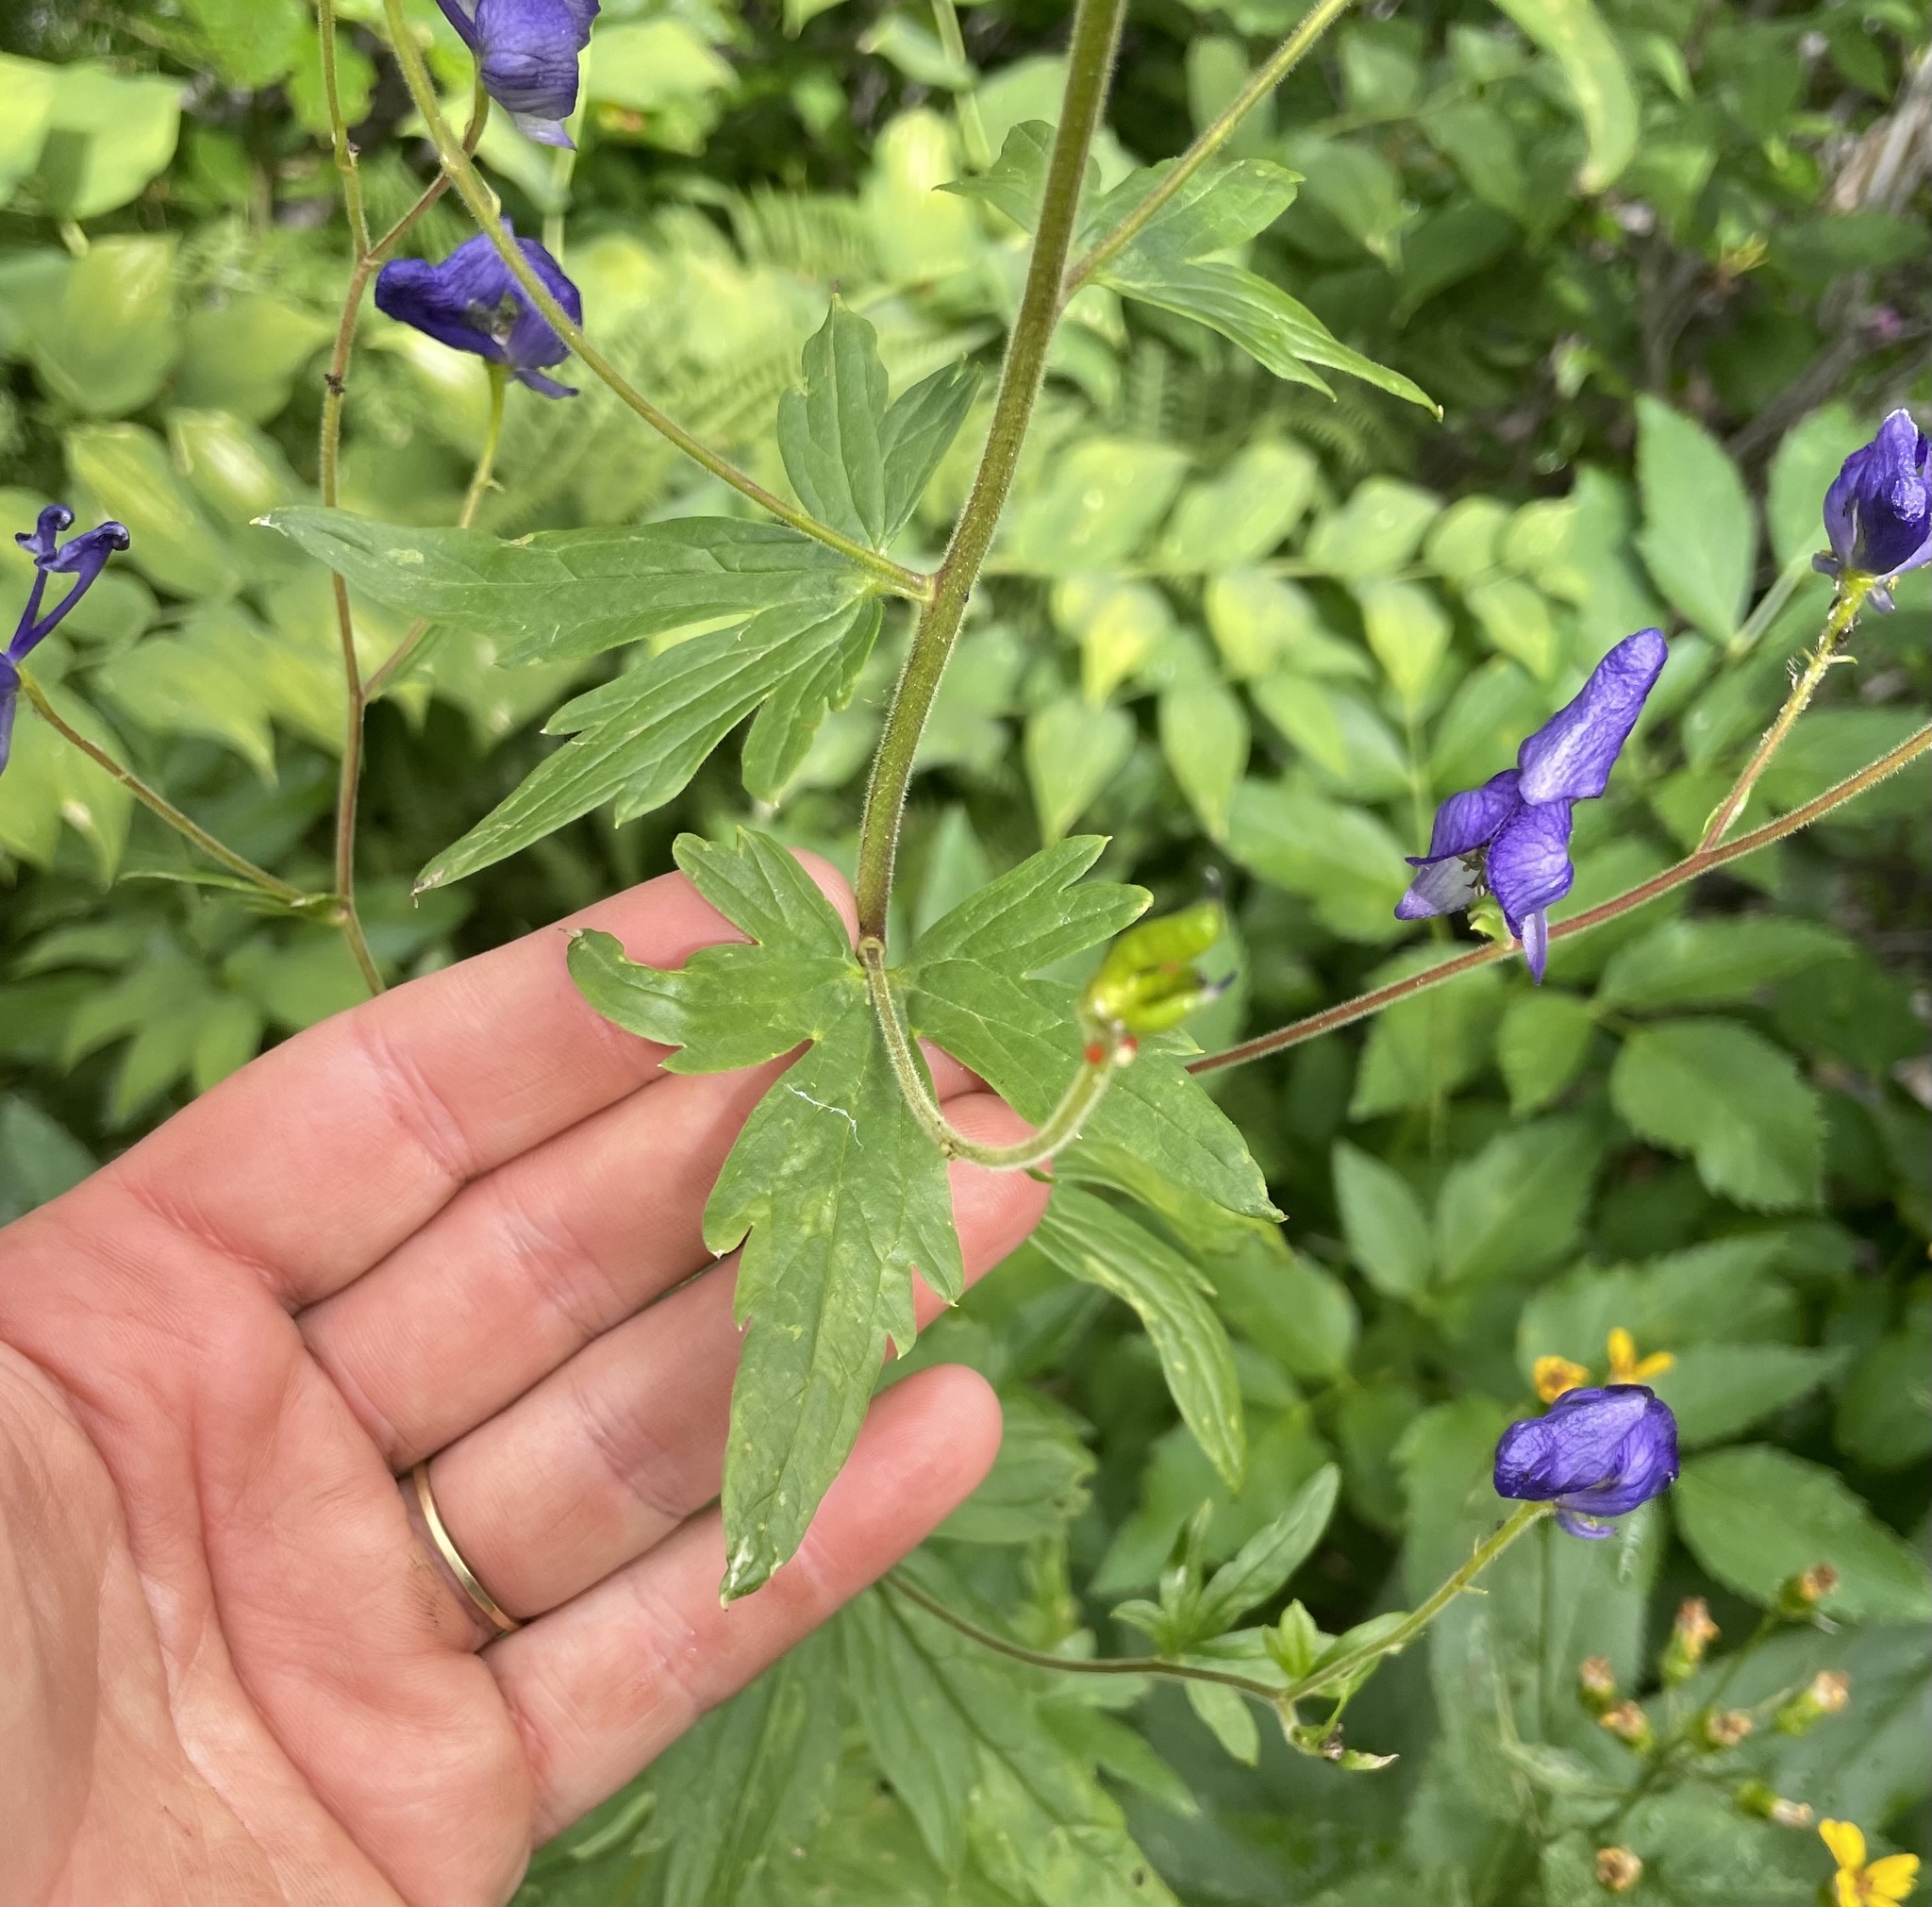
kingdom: Plantae
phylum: Tracheophyta
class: Magnoliopsida
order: Ranunculales
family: Ranunculaceae
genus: Aconitum
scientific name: Aconitum columbianum
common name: Columbia aconite
